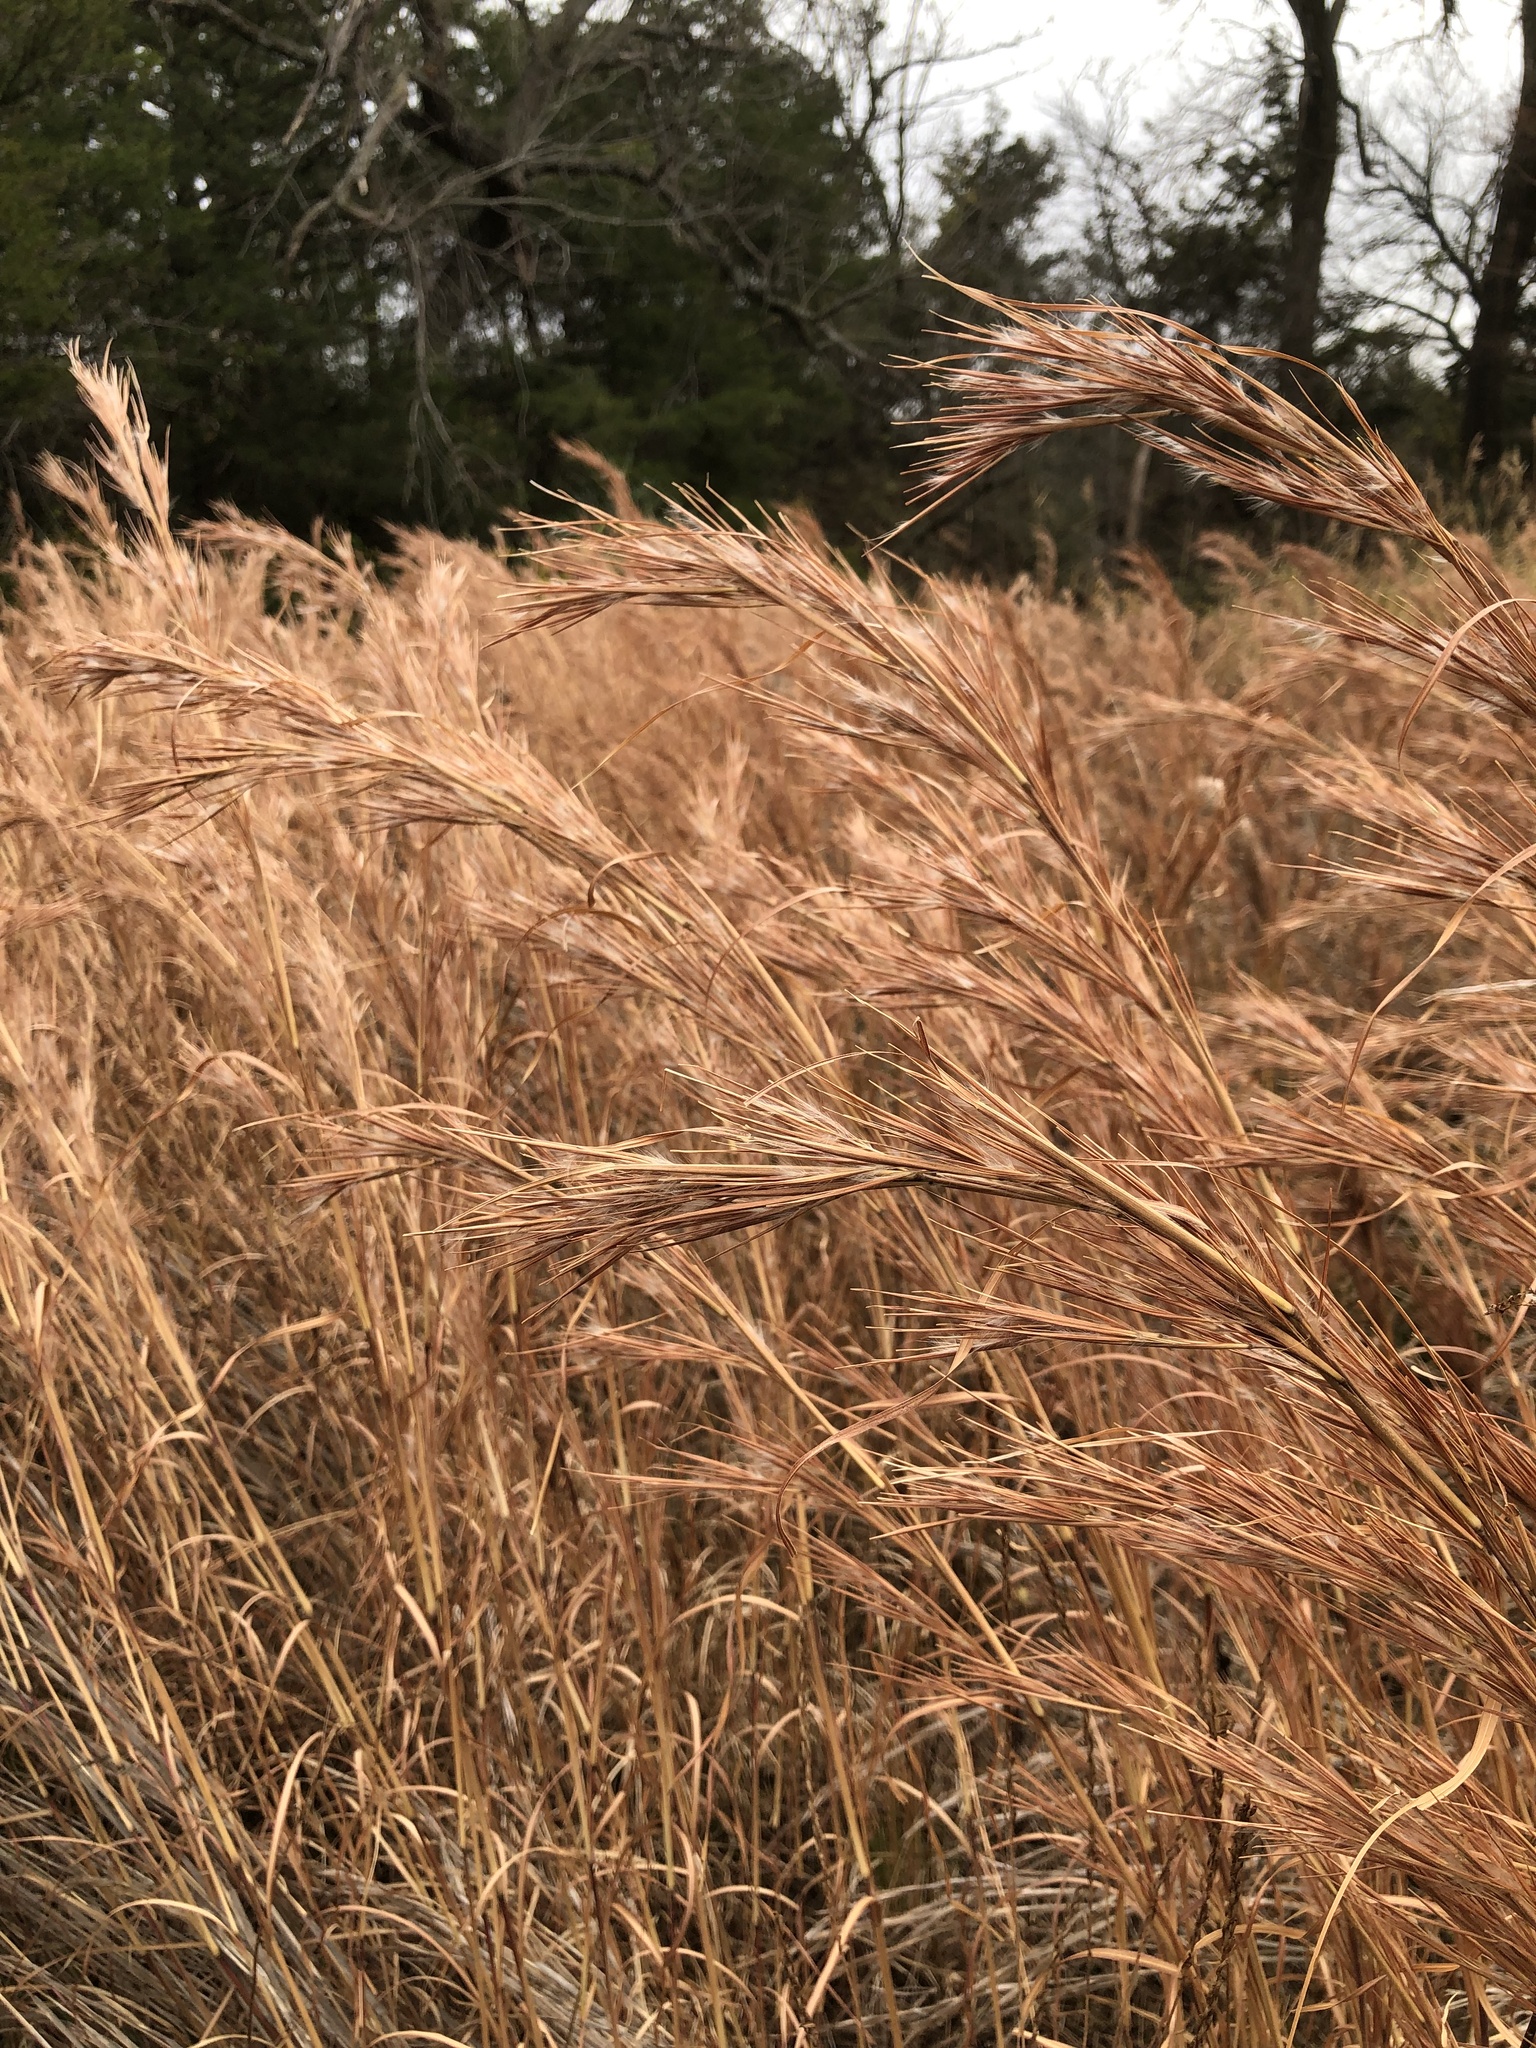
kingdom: Plantae
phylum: Tracheophyta
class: Liliopsida
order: Poales
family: Poaceae
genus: Andropogon
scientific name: Andropogon tenuispatheus
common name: Bushy bluestem
